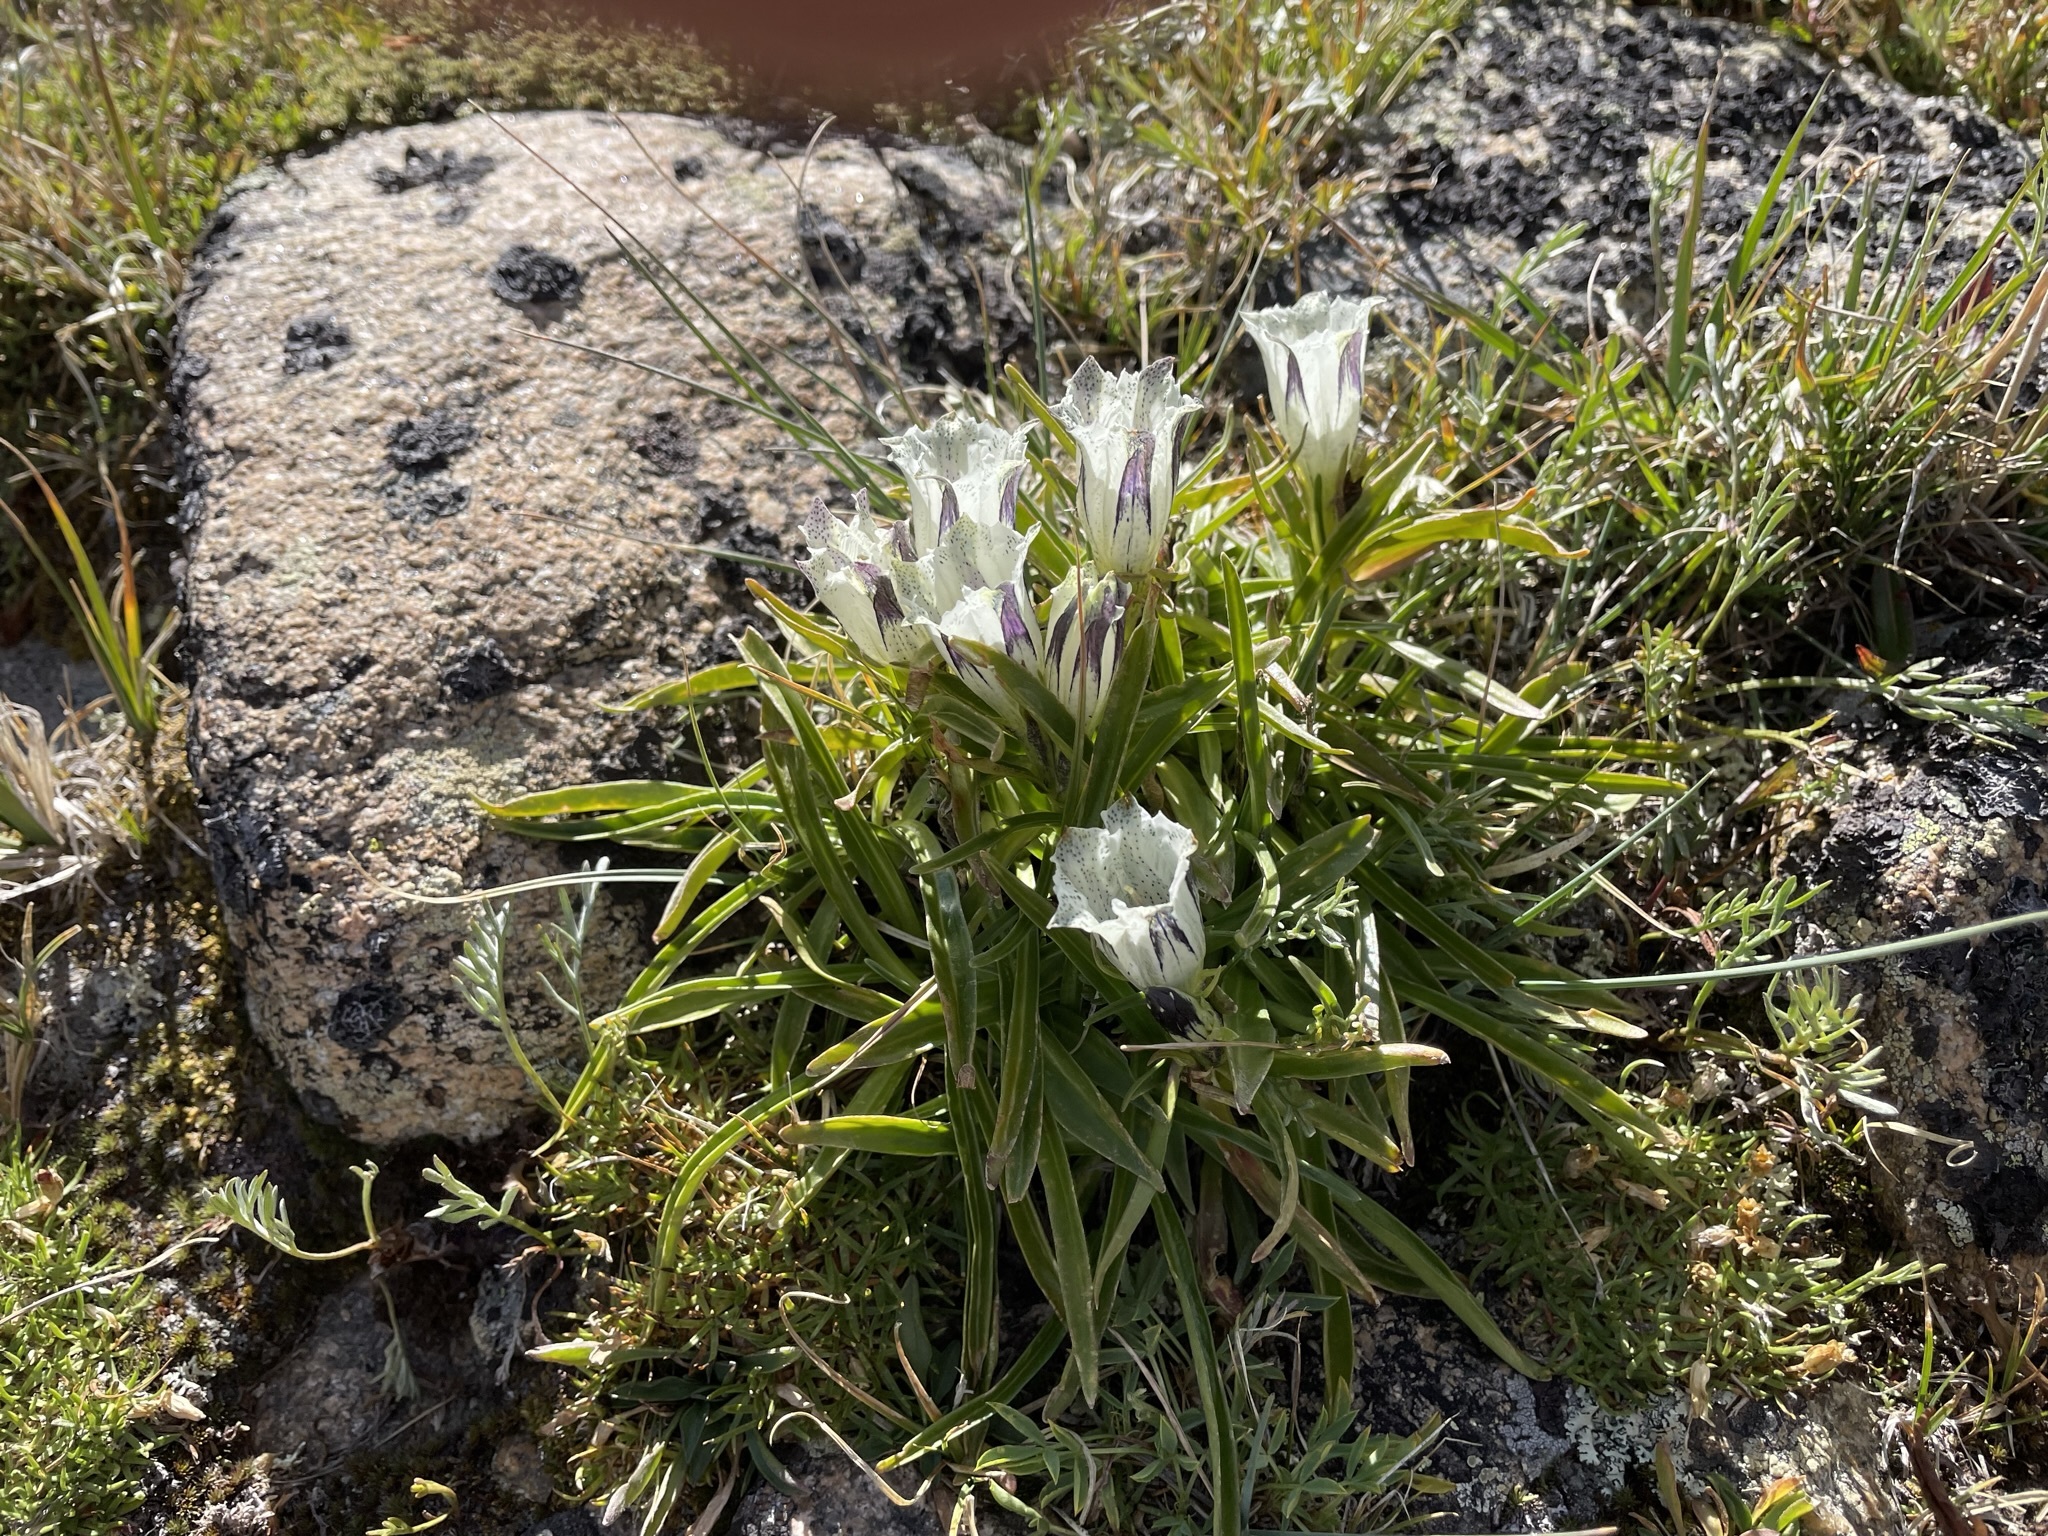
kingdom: Plantae
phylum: Tracheophyta
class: Magnoliopsida
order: Gentianales
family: Gentianaceae
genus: Gentiana
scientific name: Gentiana algida
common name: Arctic gentian
